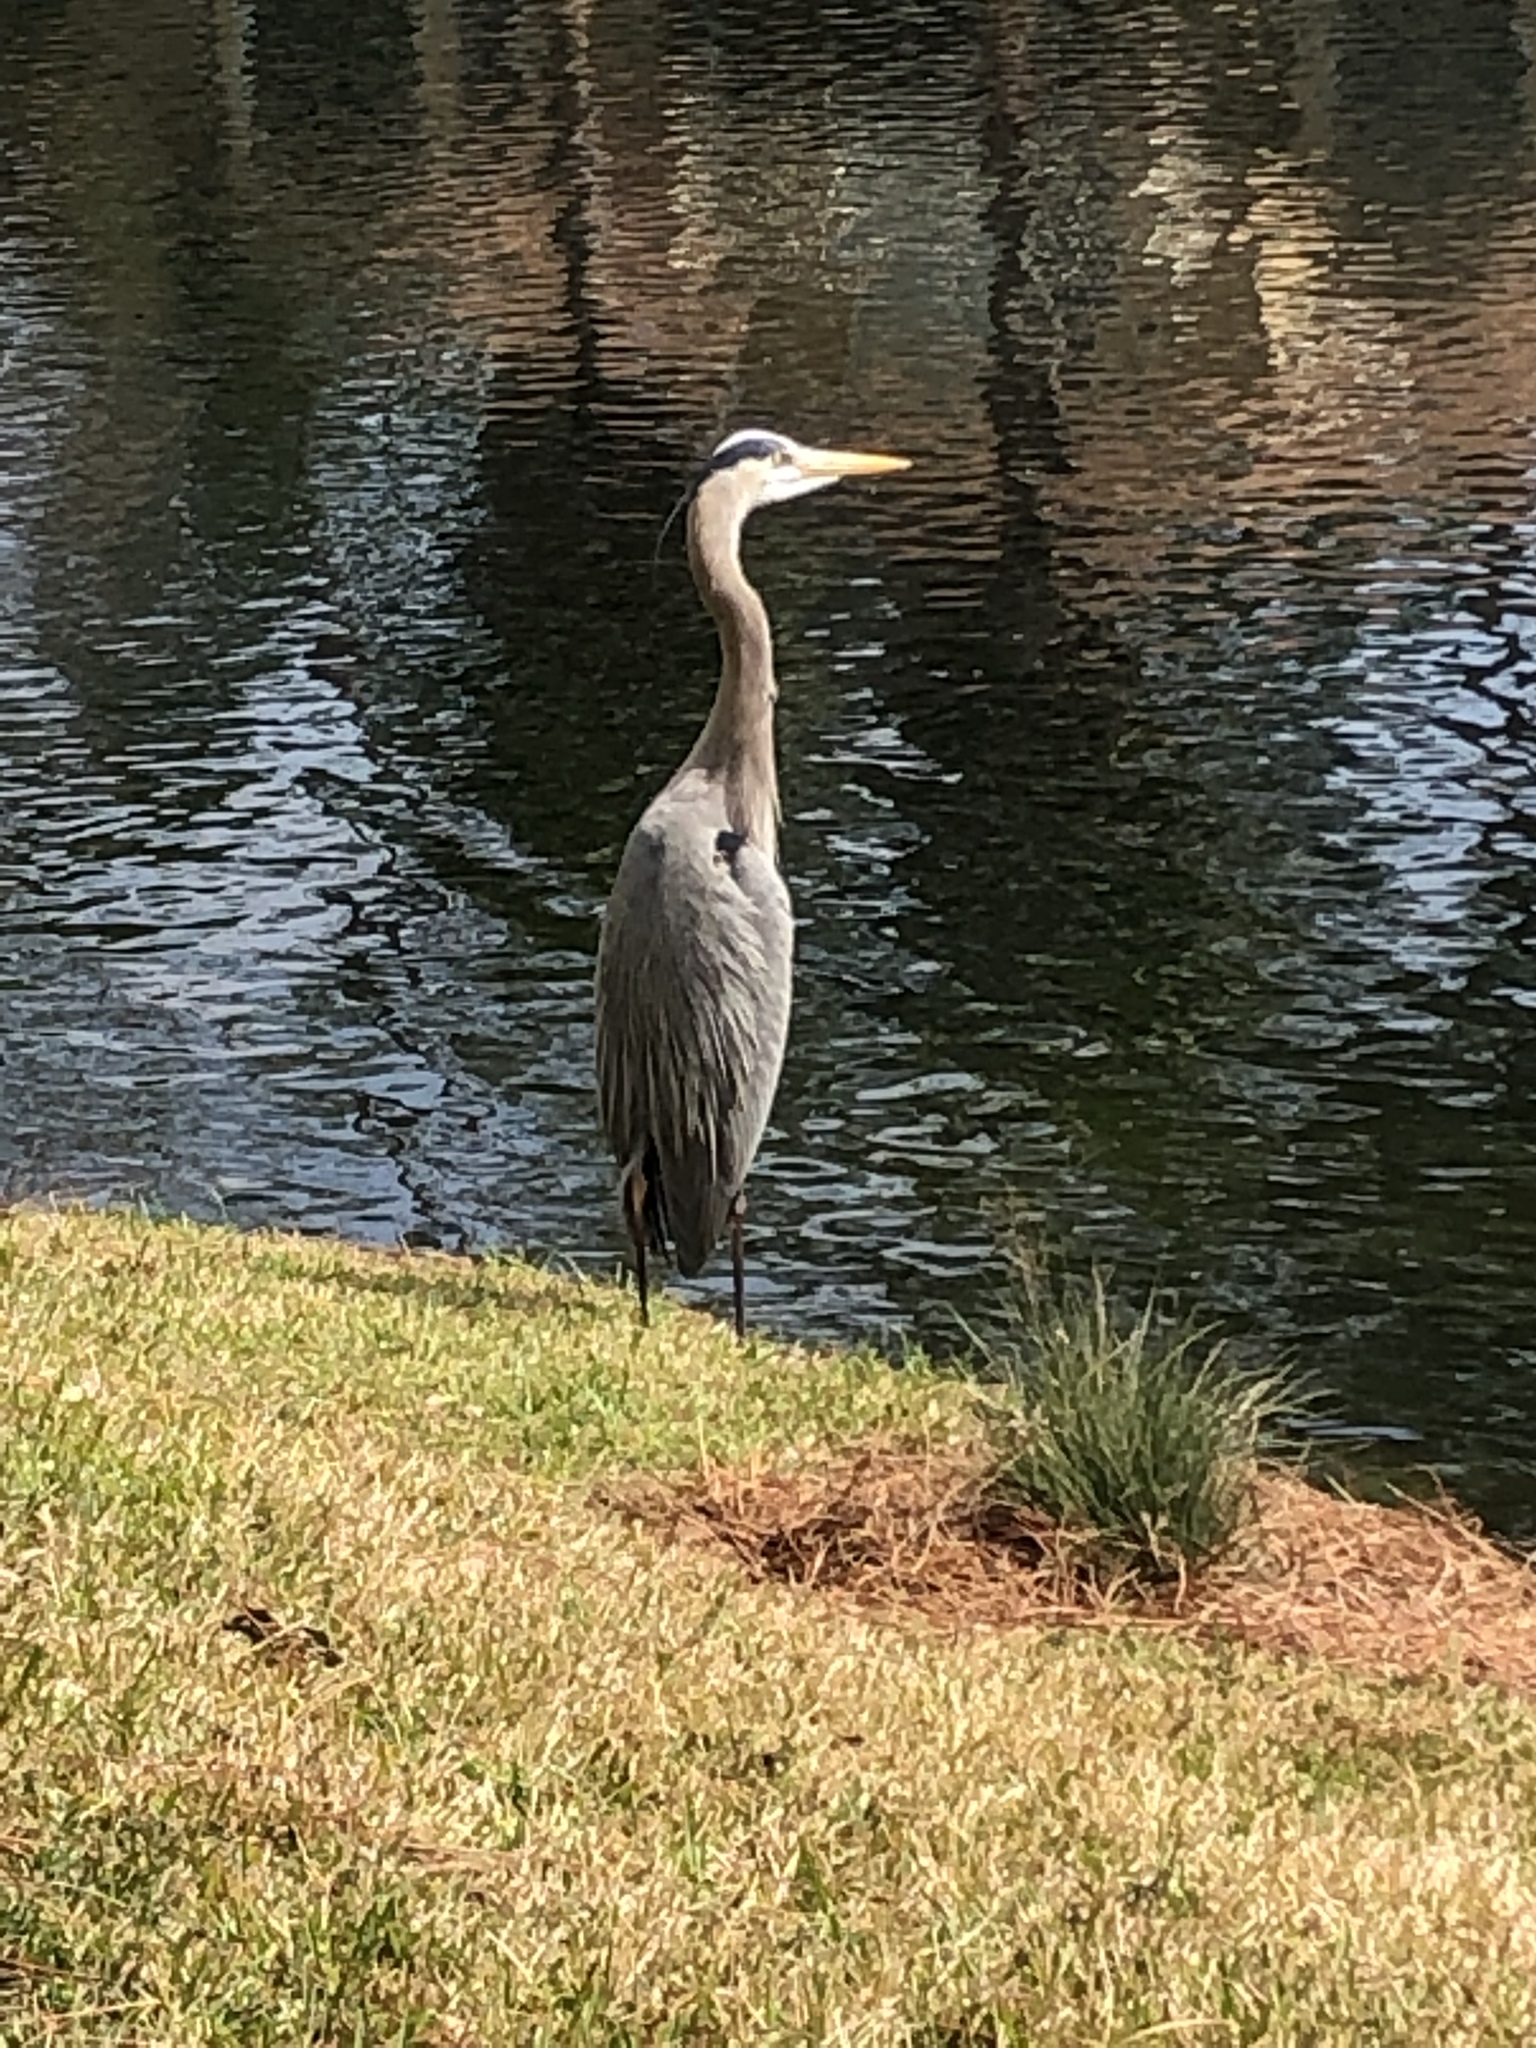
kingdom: Animalia
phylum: Chordata
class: Aves
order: Pelecaniformes
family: Ardeidae
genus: Ardea
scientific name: Ardea herodias
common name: Great blue heron
